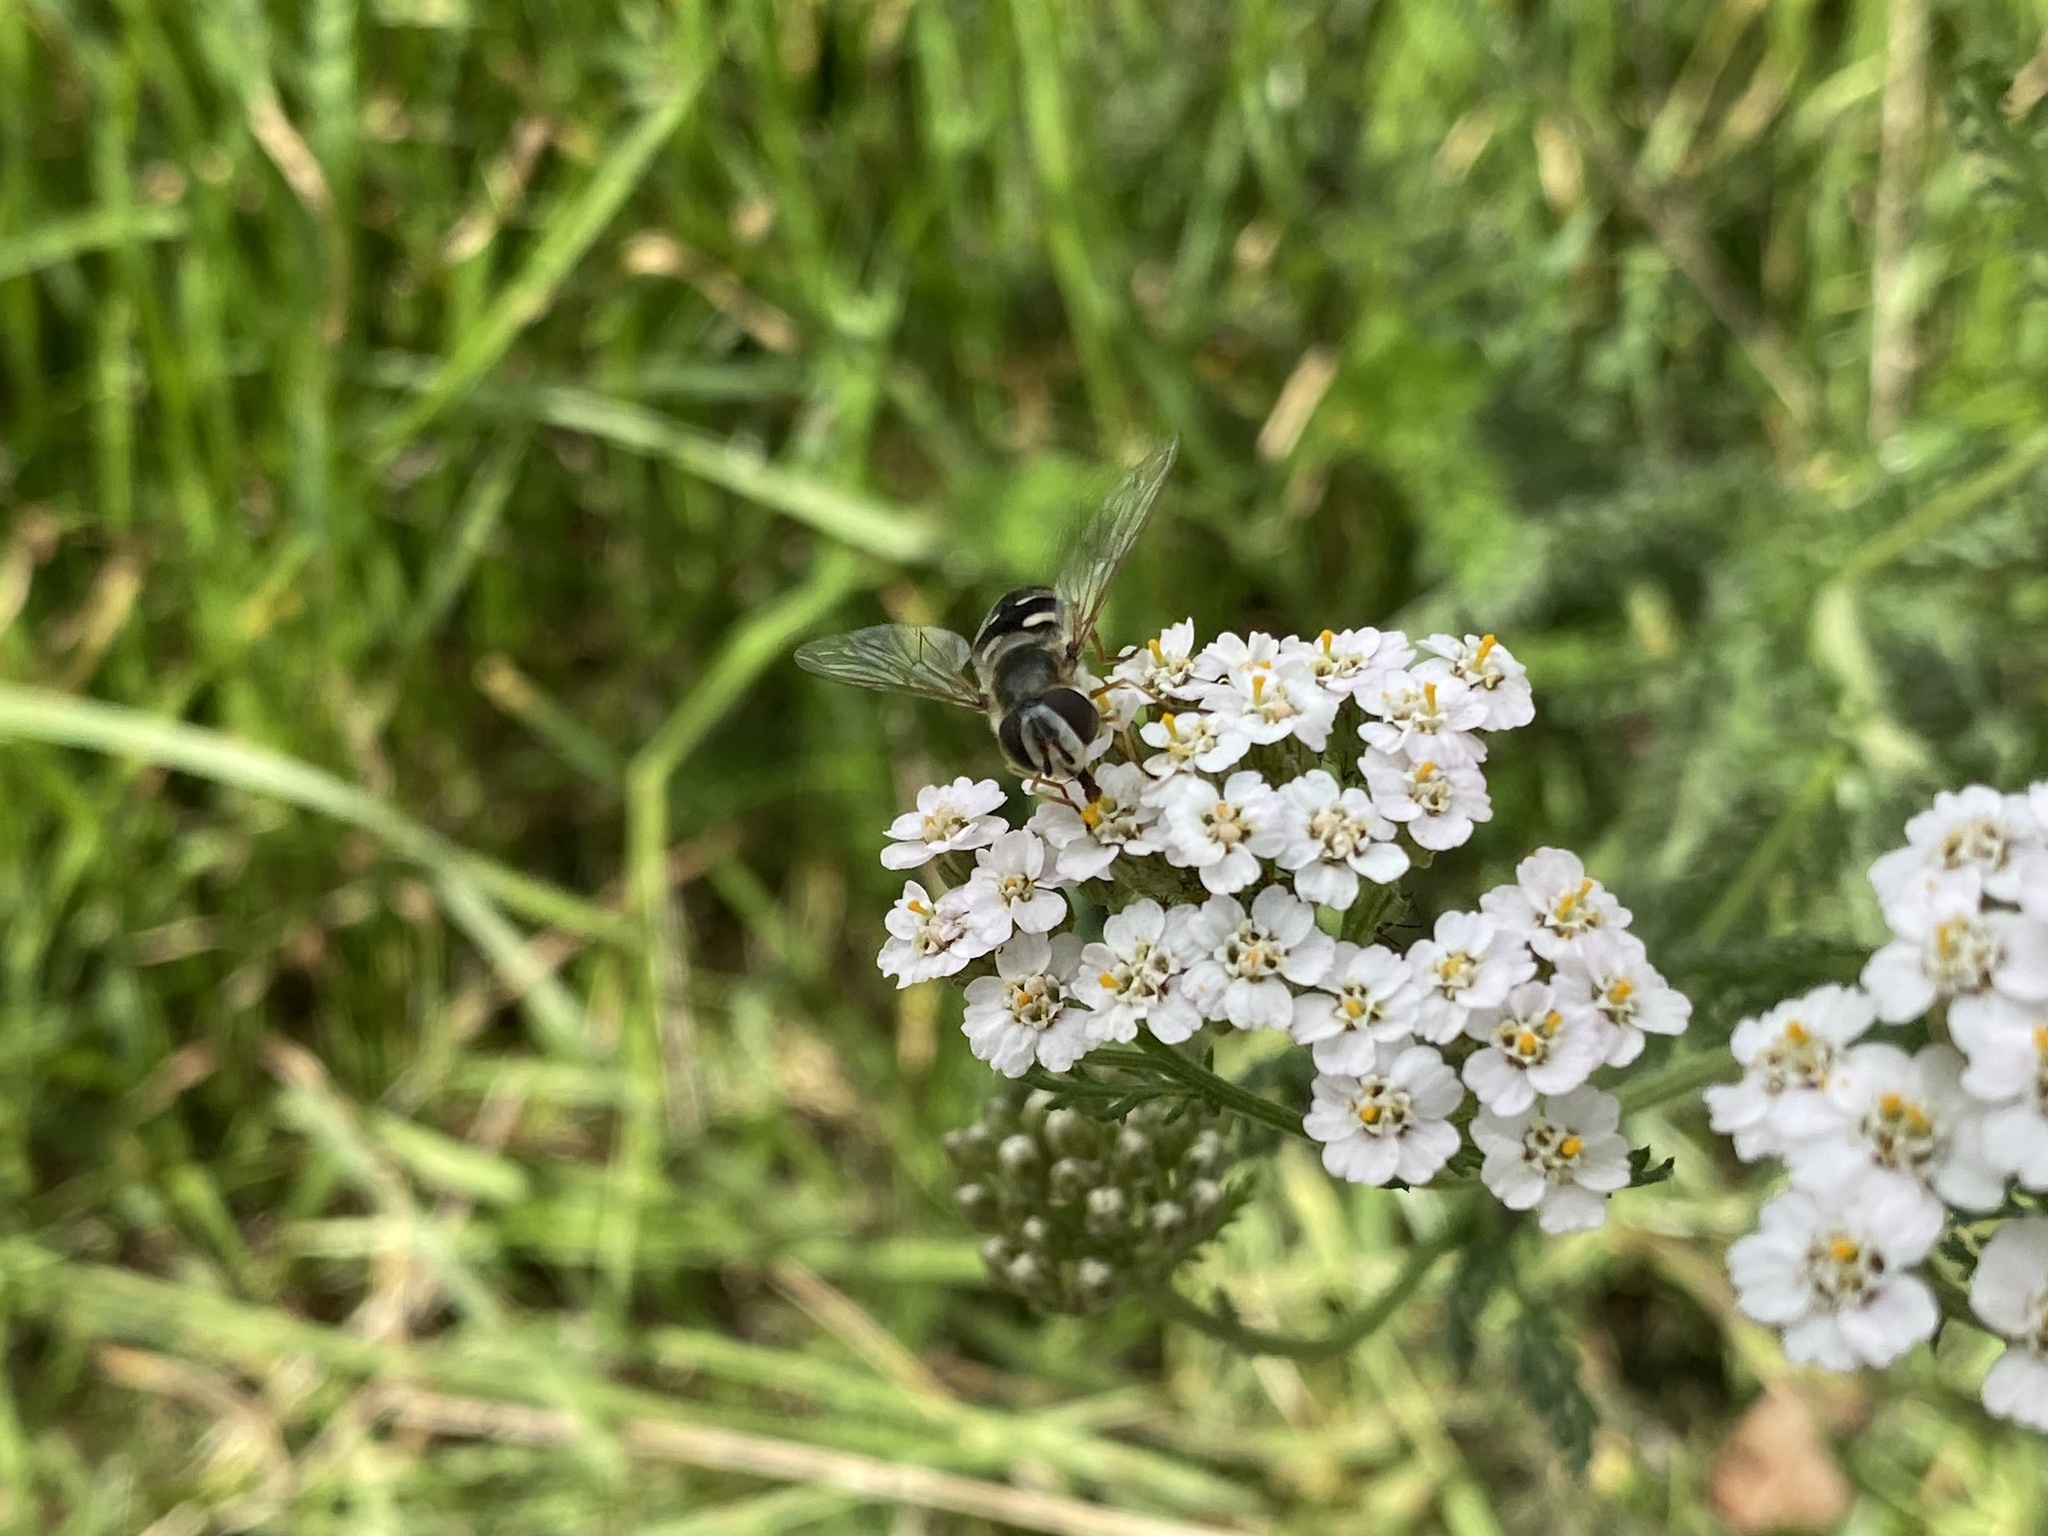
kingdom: Animalia
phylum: Arthropoda
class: Insecta
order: Diptera
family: Syrphidae
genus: Scaeva
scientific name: Scaeva pyrastri
